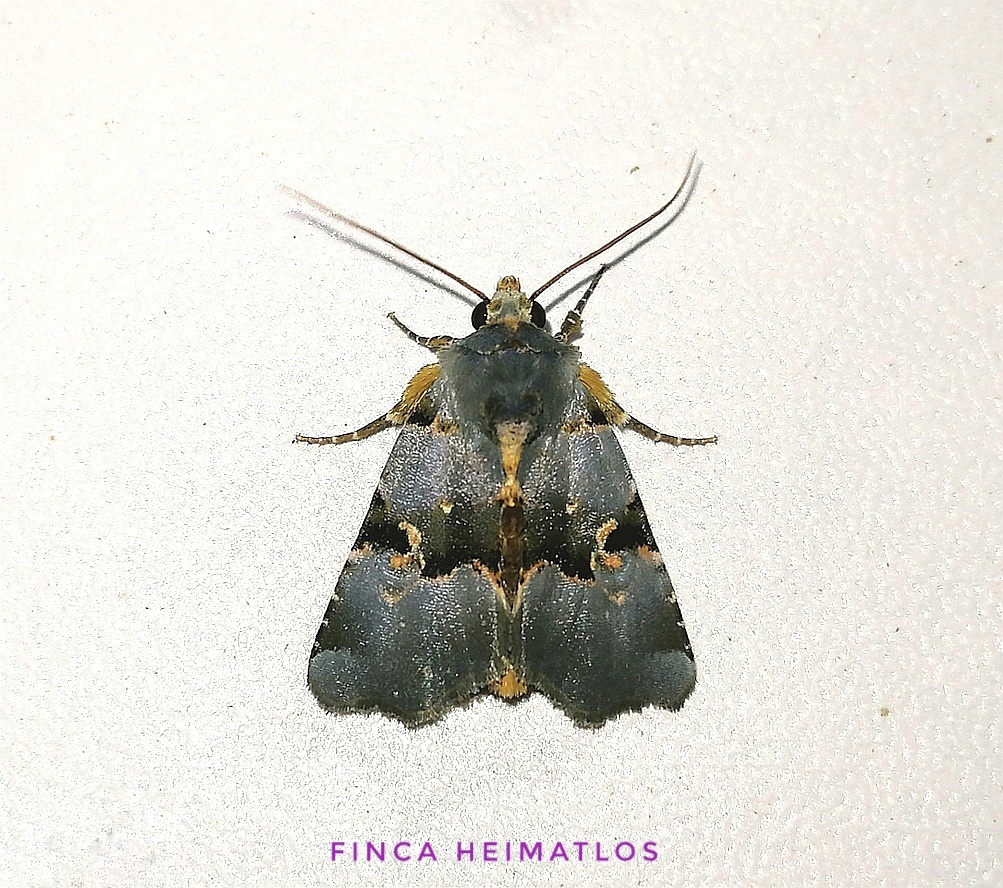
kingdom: Animalia
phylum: Arthropoda
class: Insecta
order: Lepidoptera
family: Noctuidae
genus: Fracara
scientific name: Fracara viridata
